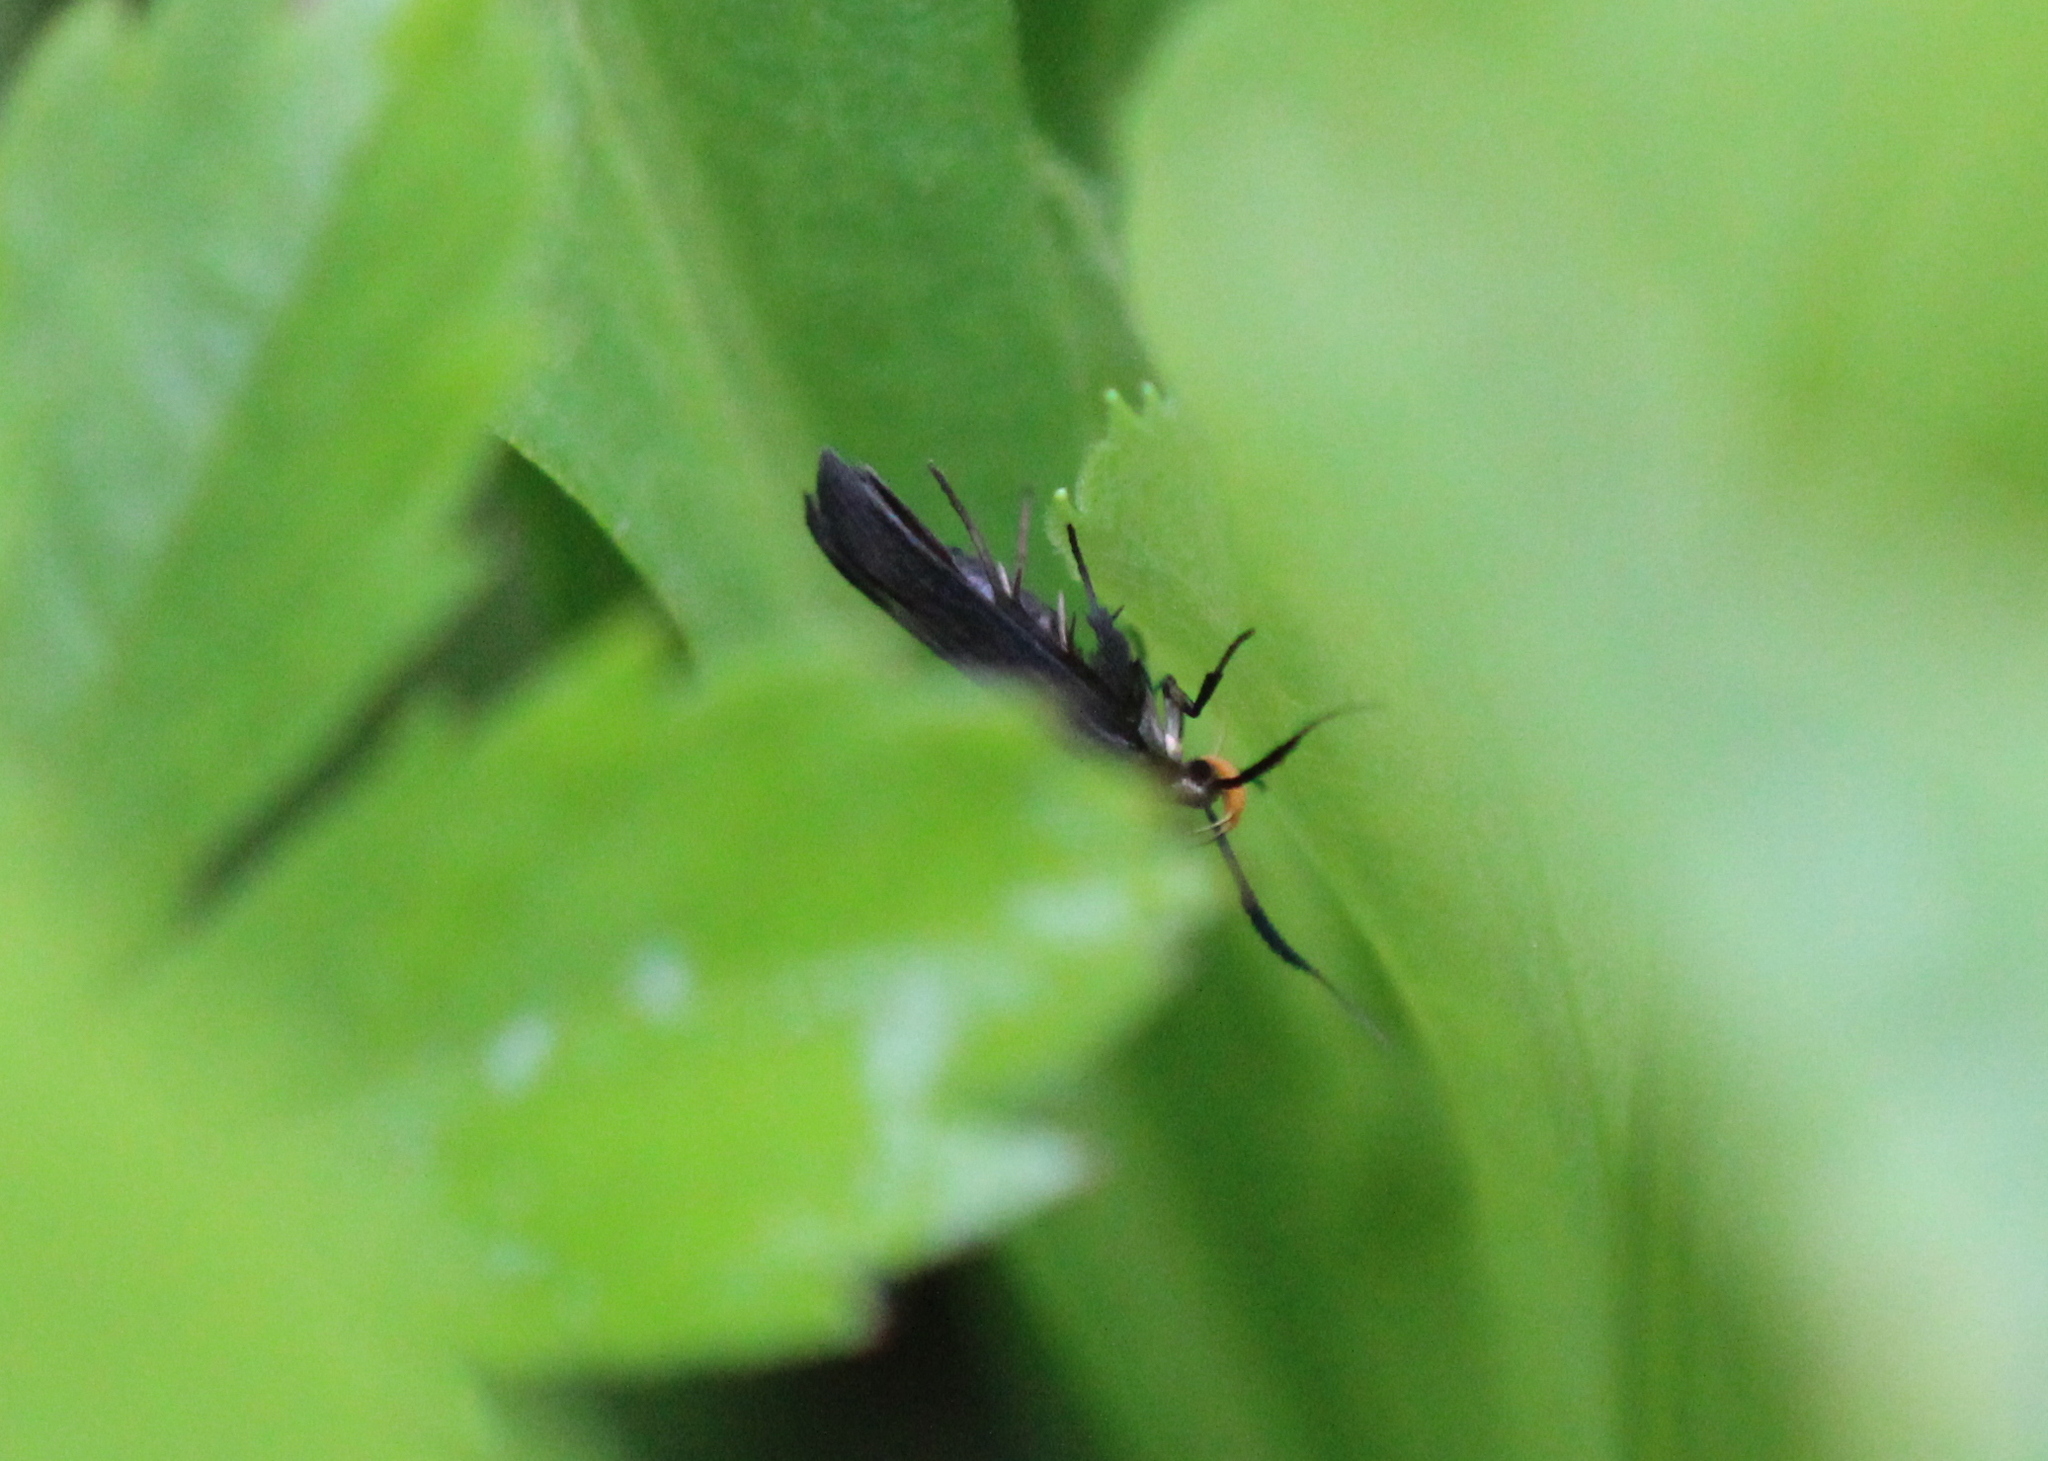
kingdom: Animalia
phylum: Arthropoda
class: Insecta
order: Lepidoptera
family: Gelechiidae
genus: Dichomeris
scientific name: Dichomeris nonstrigella
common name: Little devil moth
